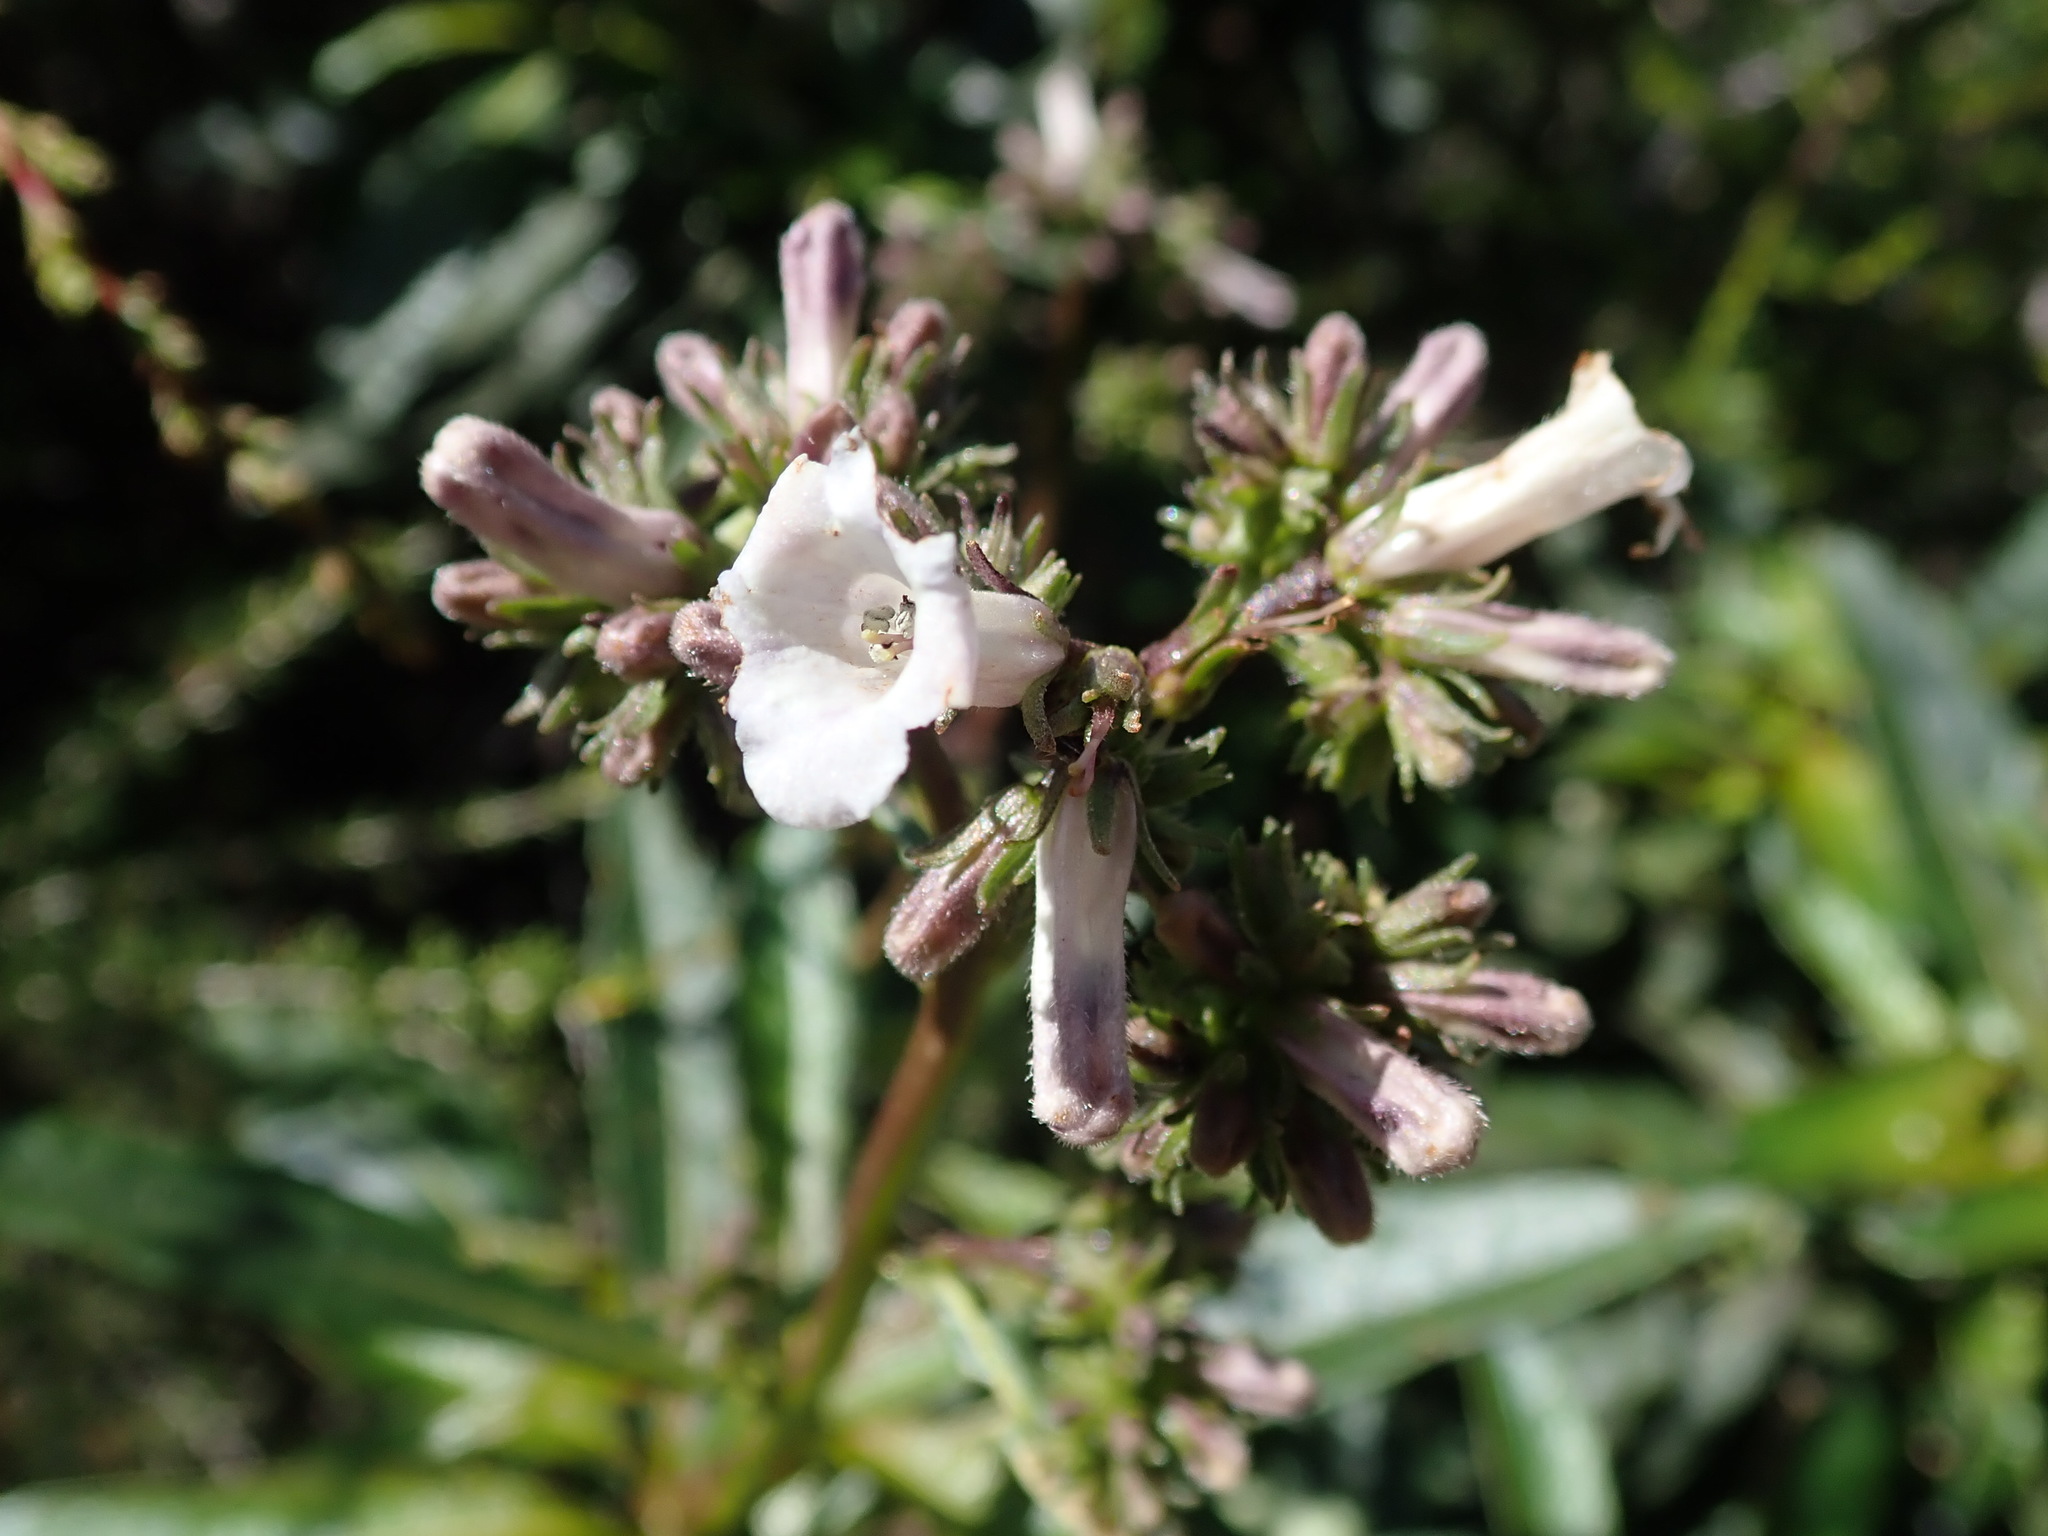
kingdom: Plantae
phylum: Tracheophyta
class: Magnoliopsida
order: Boraginales
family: Namaceae
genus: Eriodictyon
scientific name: Eriodictyon californicum
